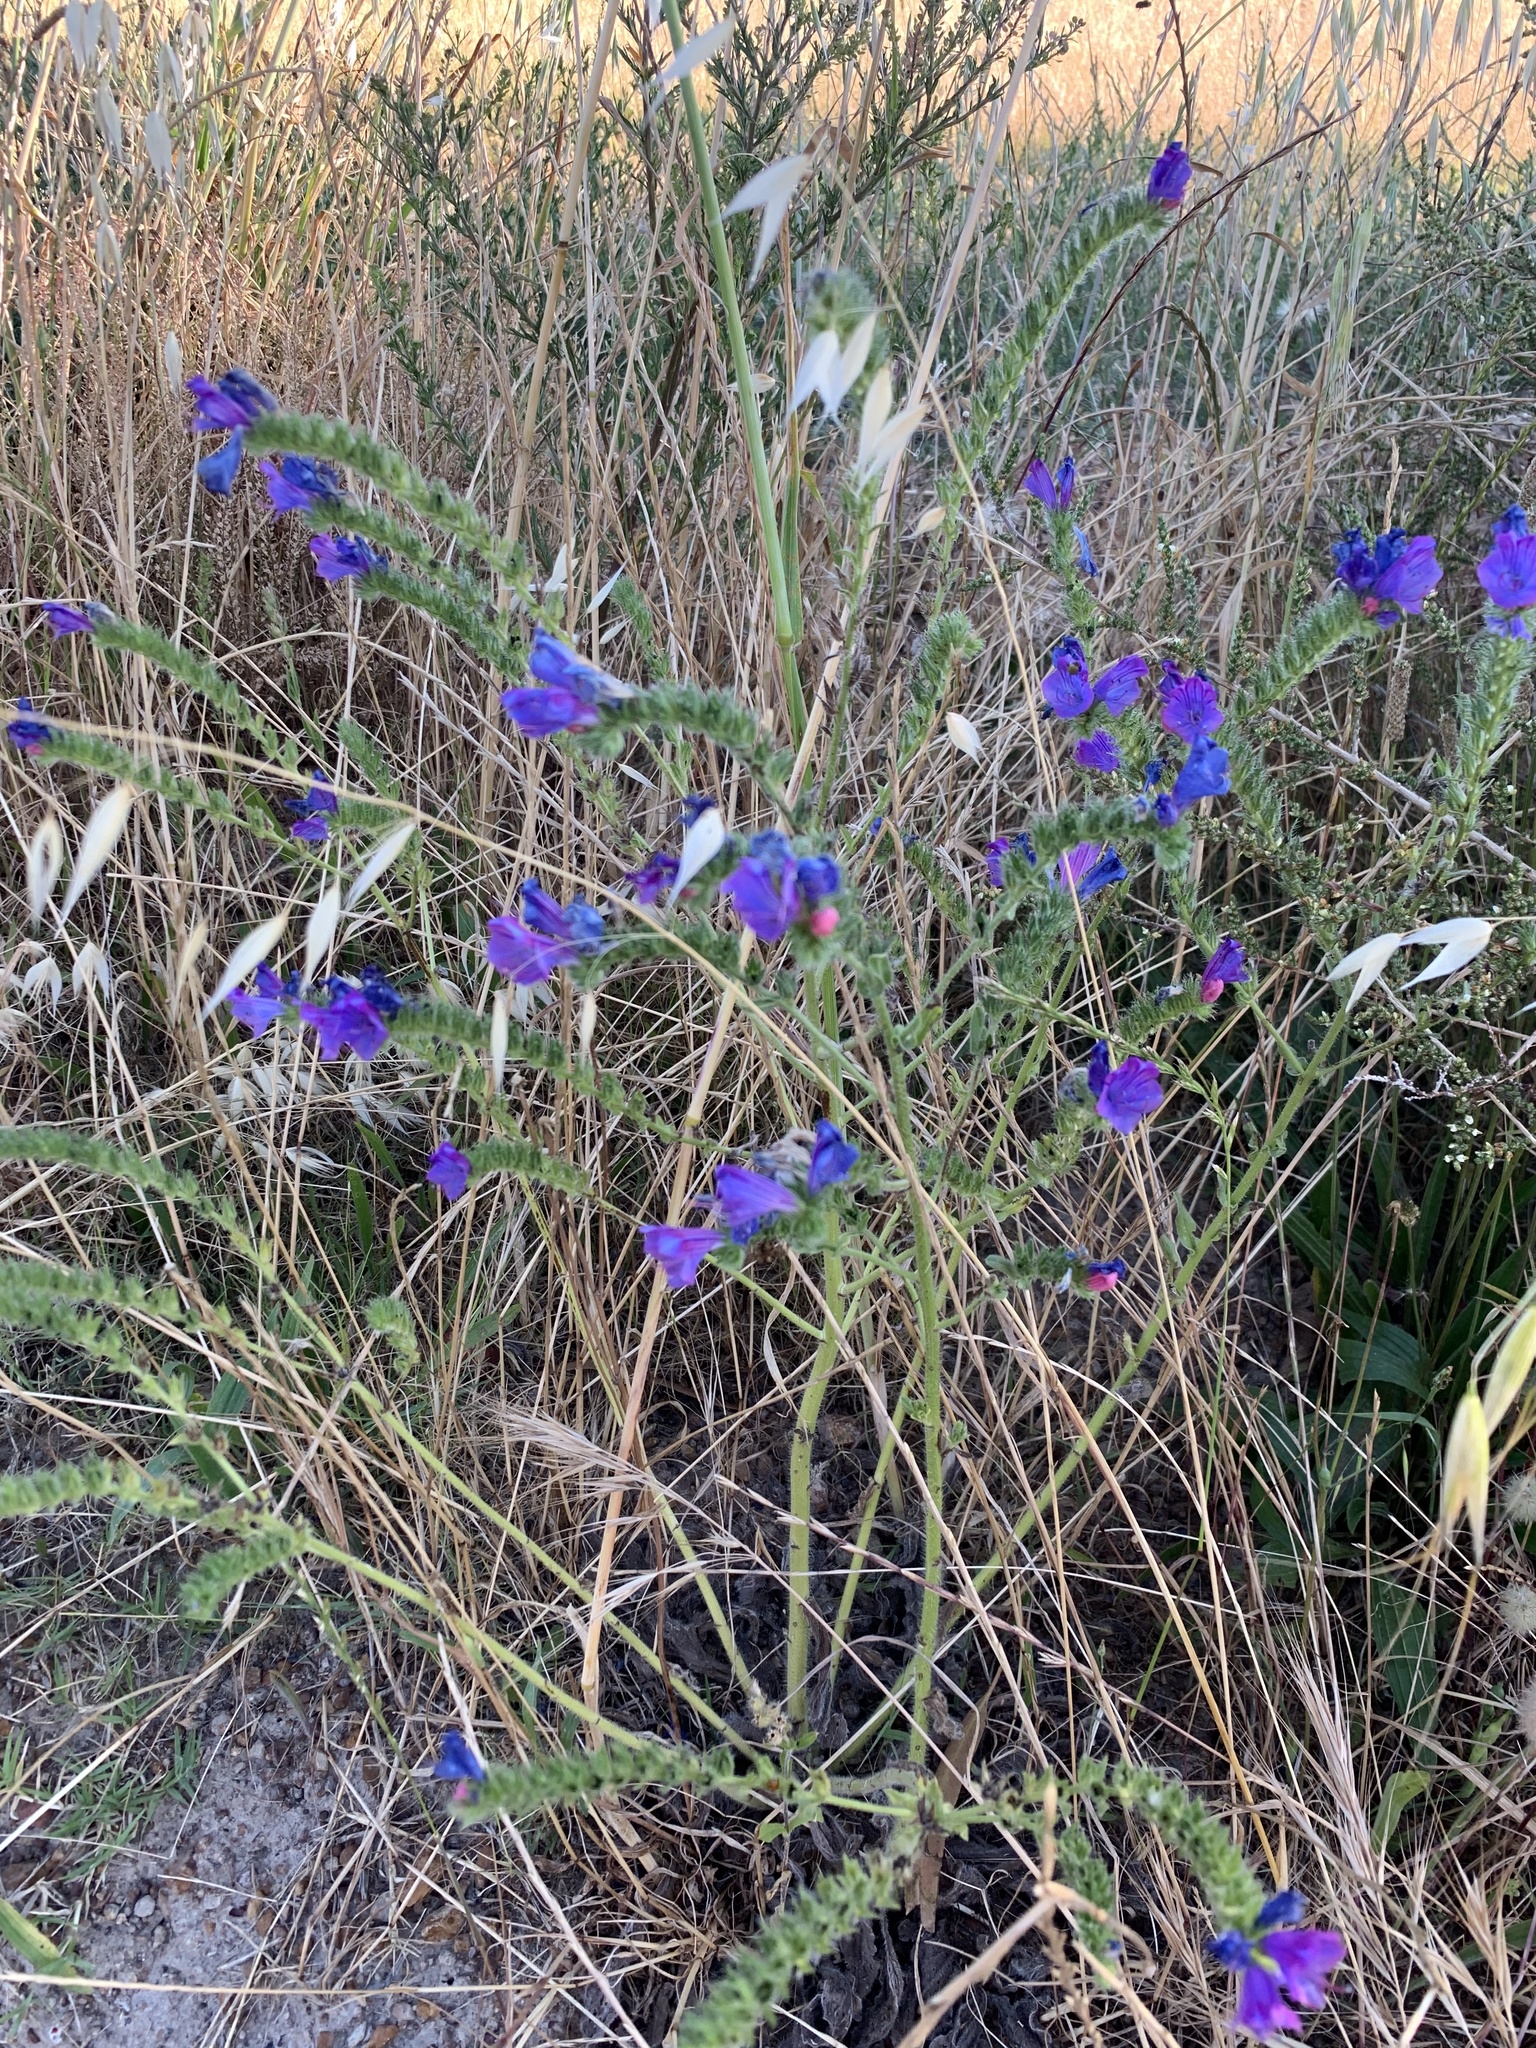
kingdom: Plantae
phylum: Tracheophyta
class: Magnoliopsida
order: Boraginales
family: Boraginaceae
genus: Echium
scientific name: Echium plantagineum
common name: Purple viper's-bugloss
